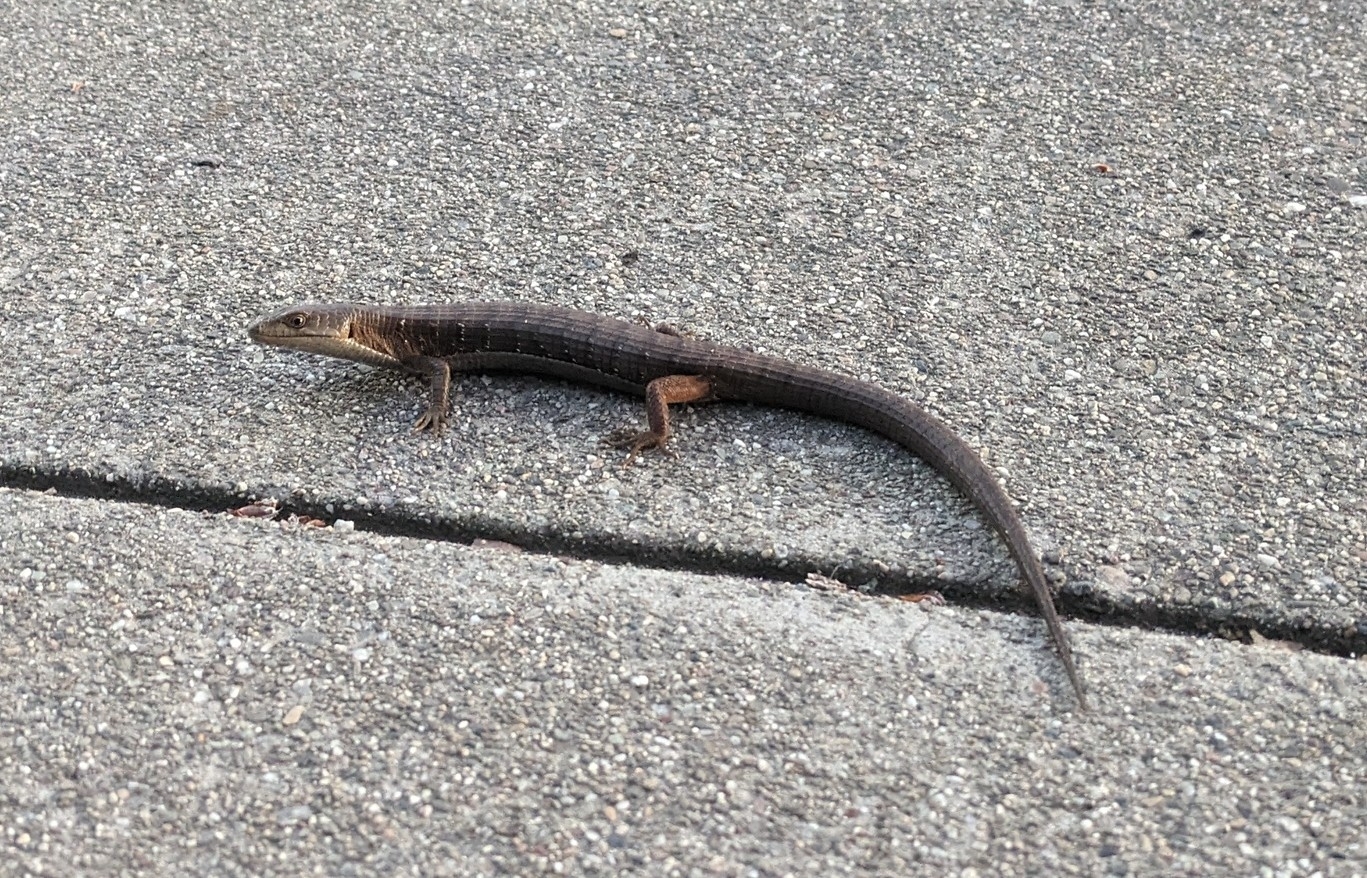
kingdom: Animalia
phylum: Chordata
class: Squamata
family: Anguidae
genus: Elgaria
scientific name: Elgaria multicarinata
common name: Southern alligator lizard
